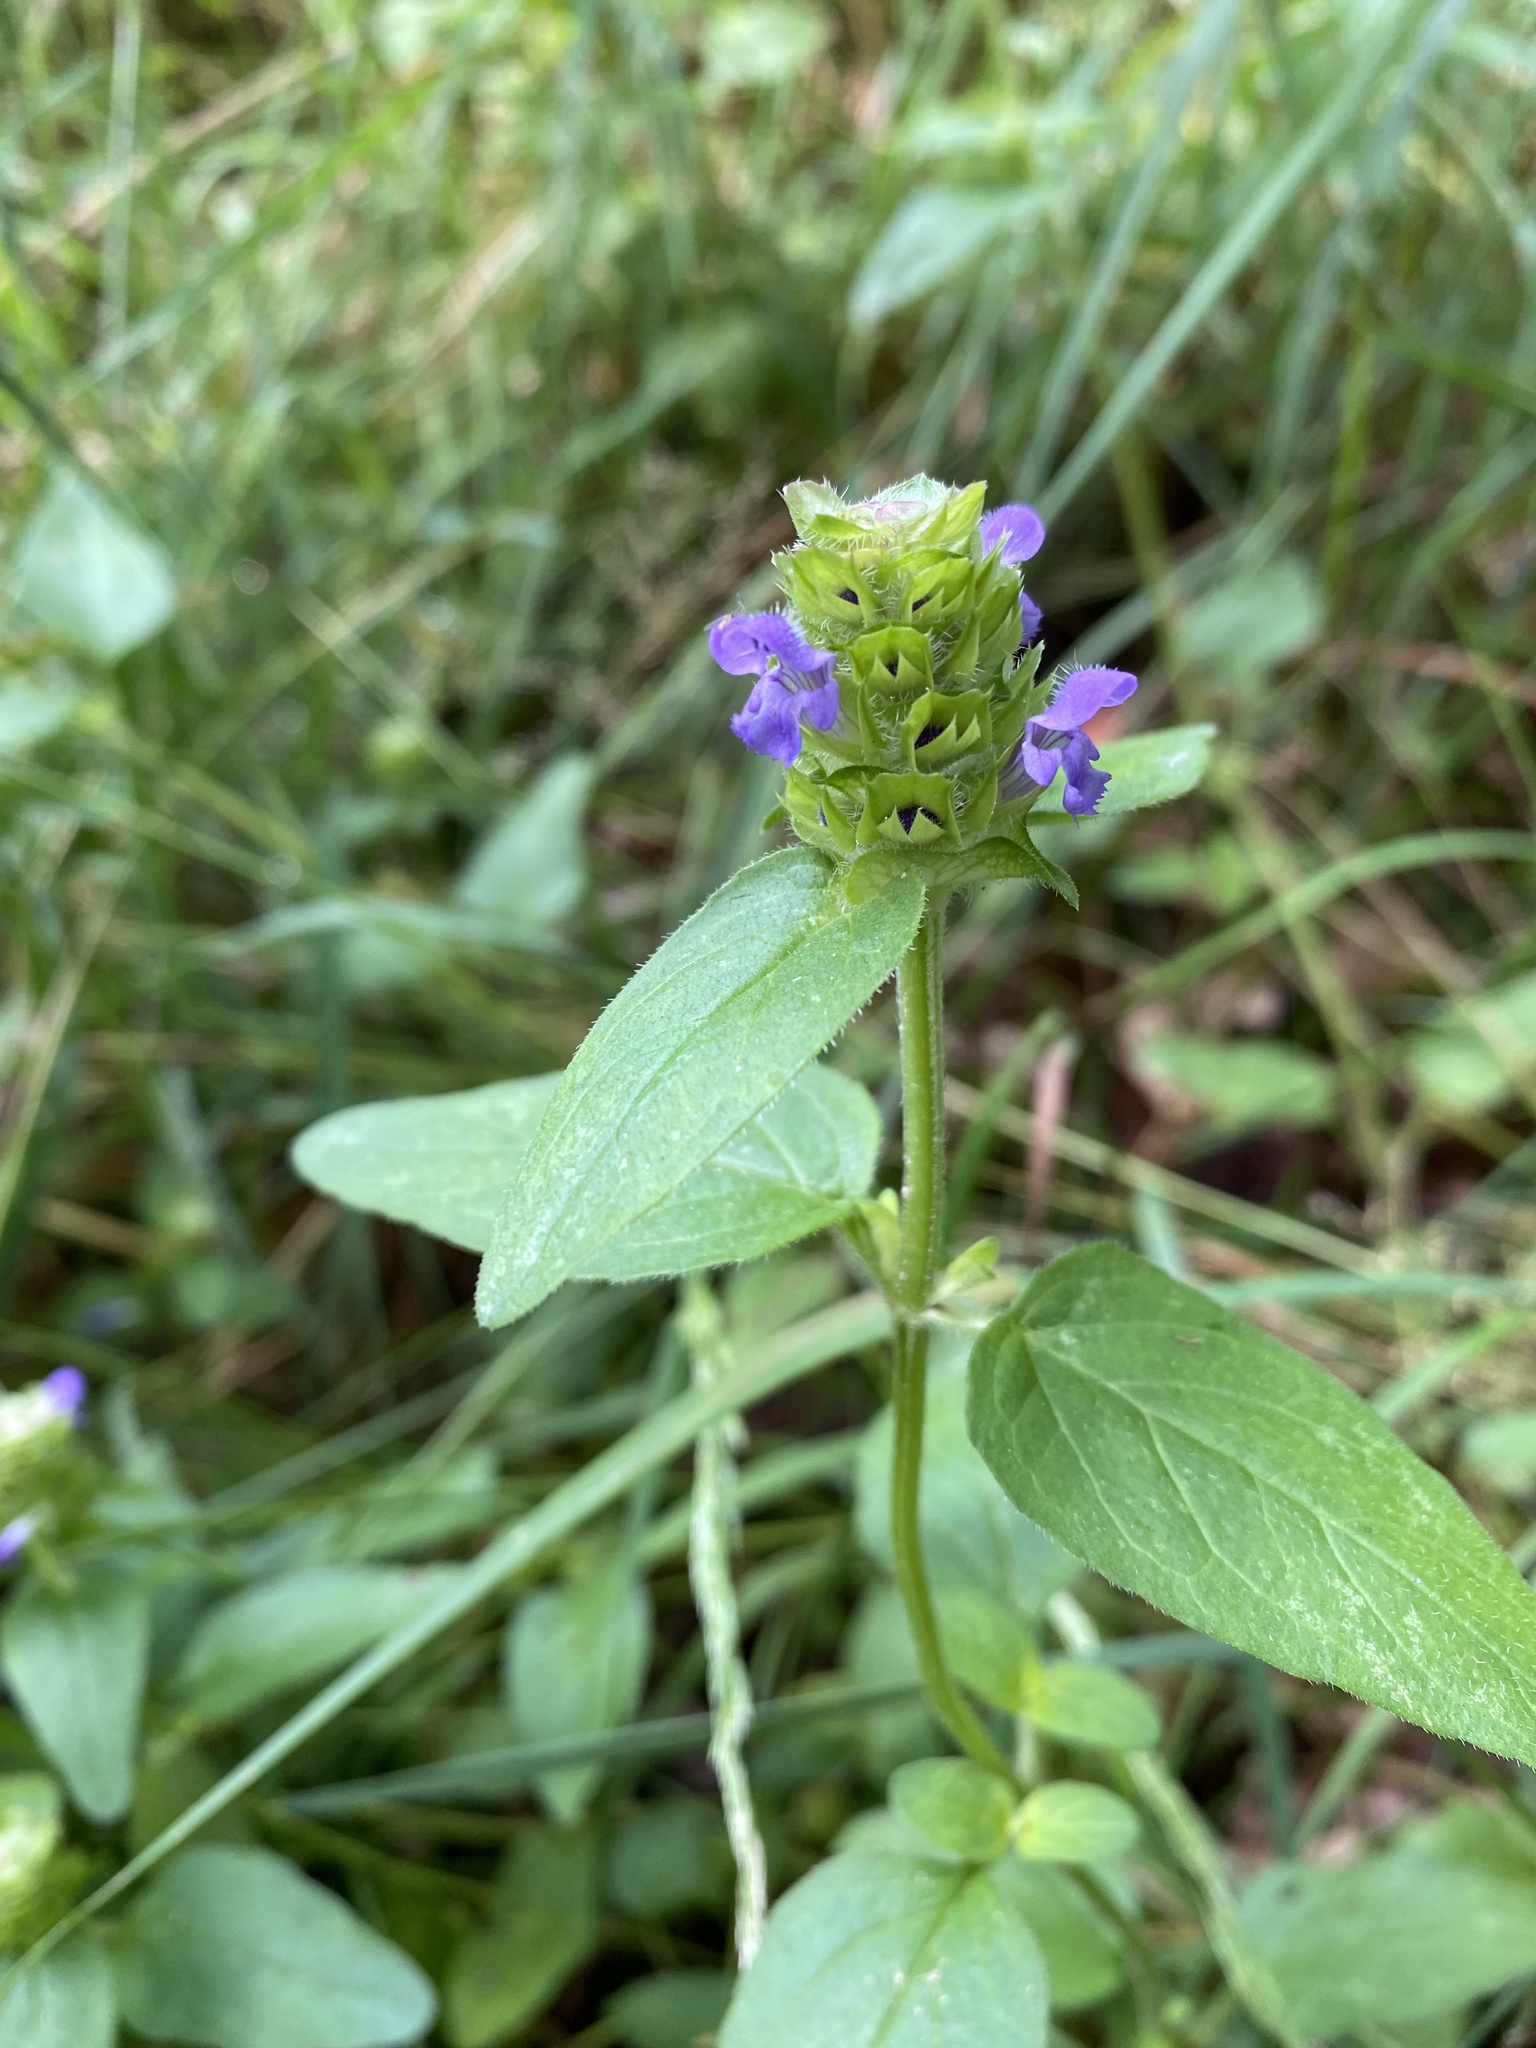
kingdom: Plantae
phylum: Tracheophyta
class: Magnoliopsida
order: Lamiales
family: Lamiaceae
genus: Prunella
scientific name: Prunella vulgaris
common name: Heal-all
